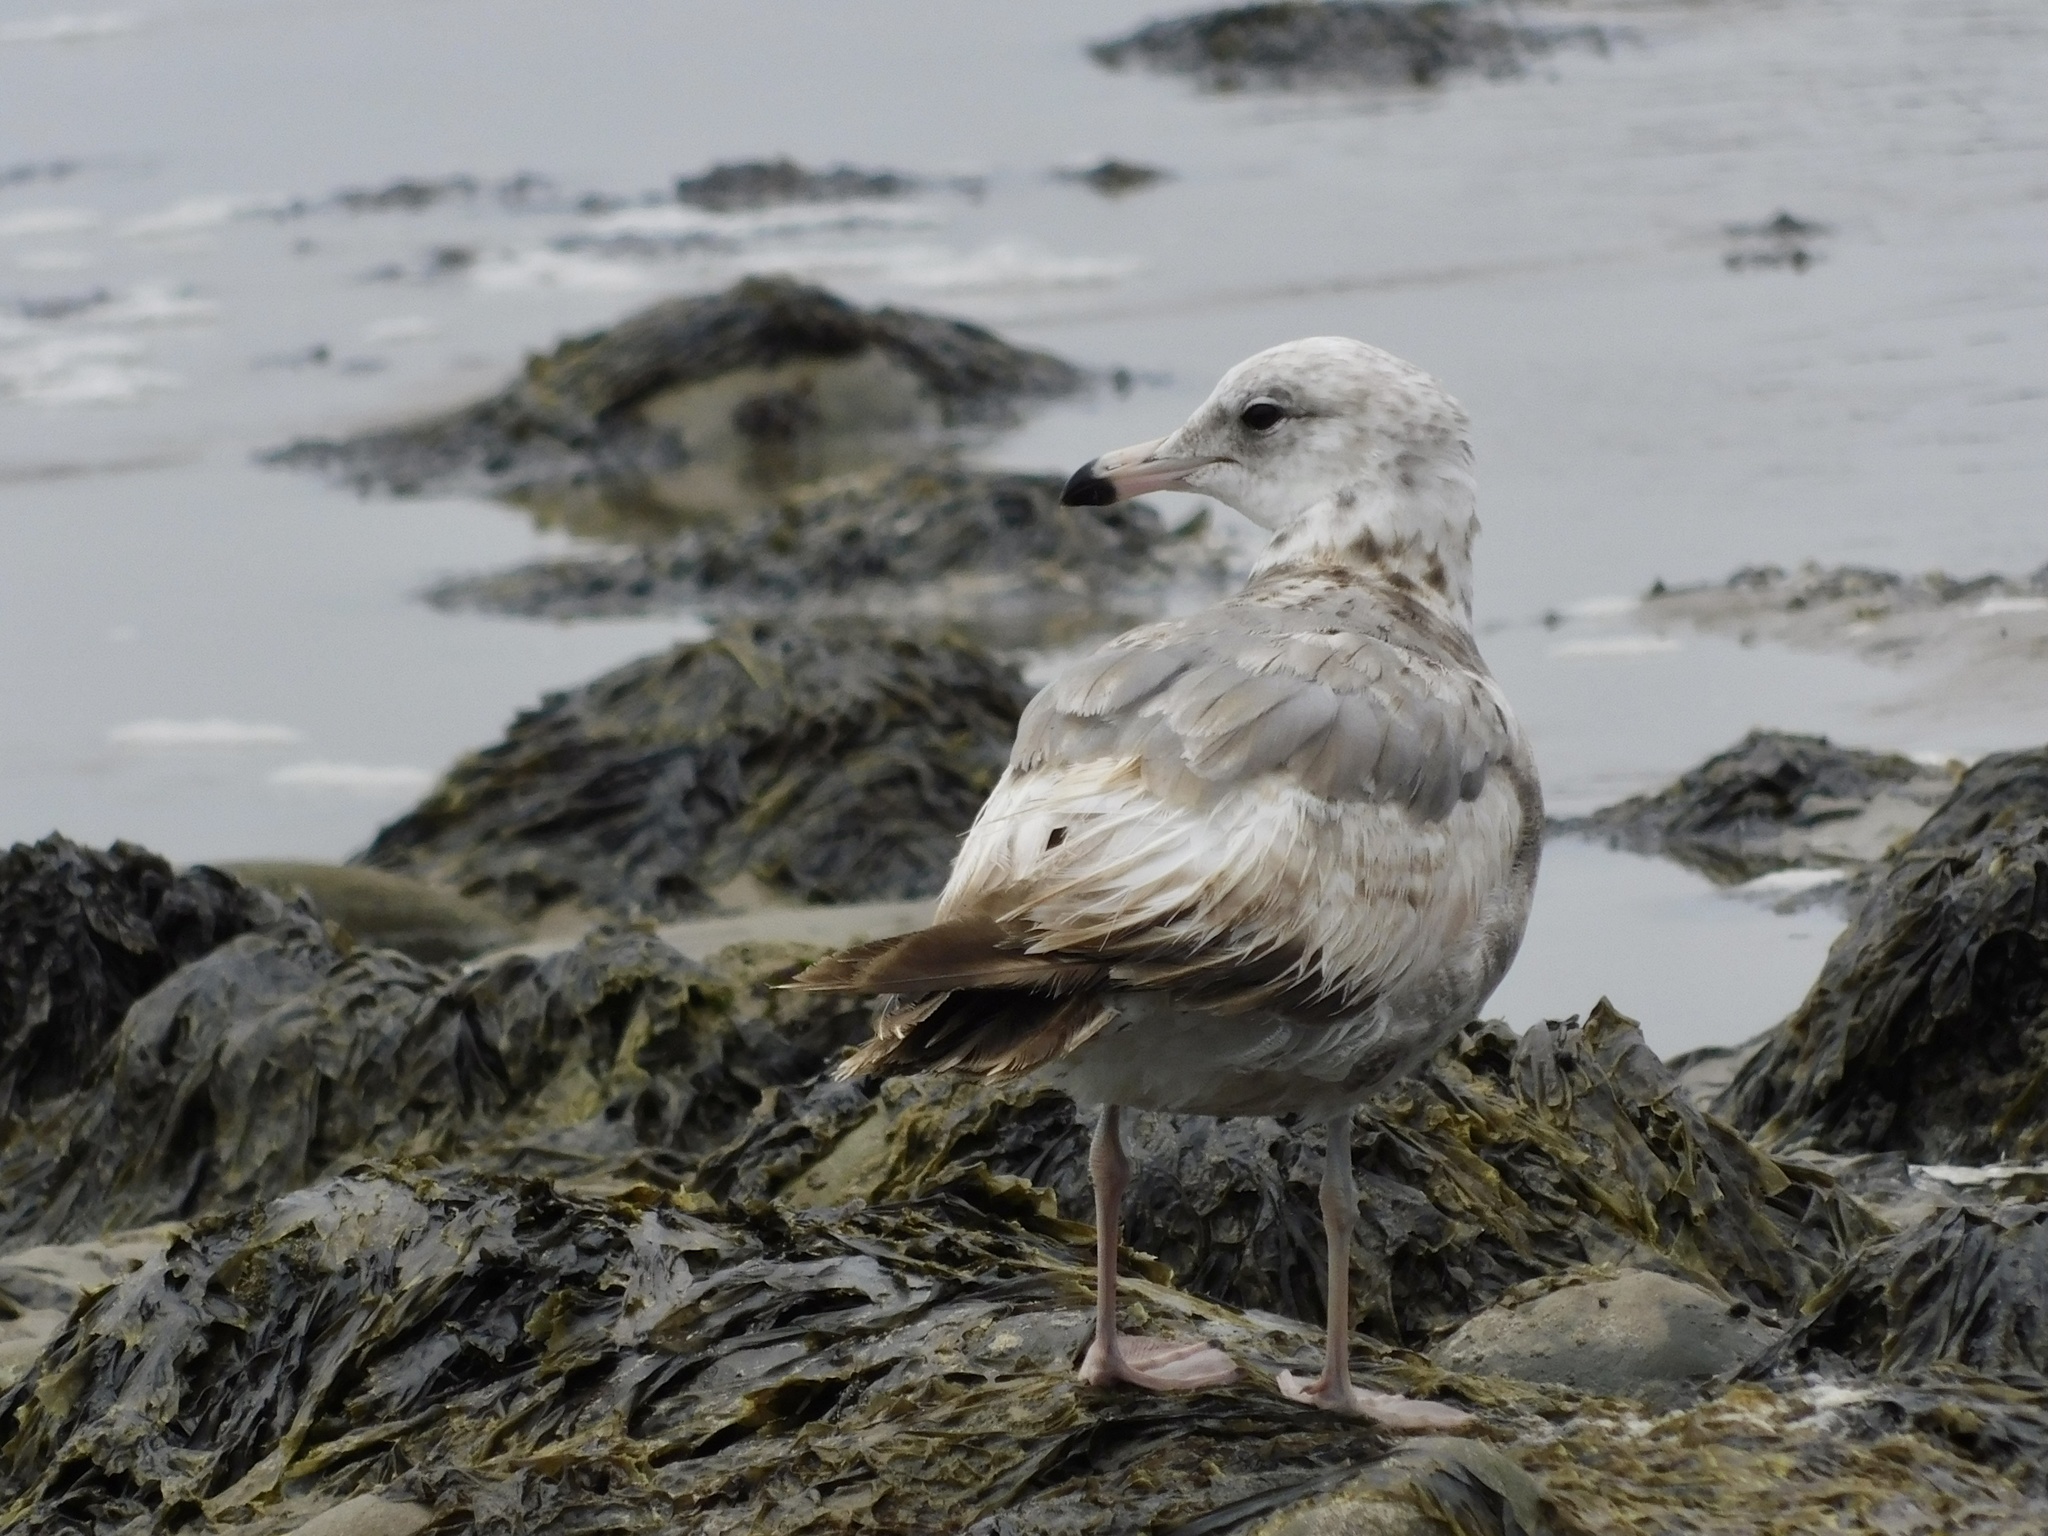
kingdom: Animalia
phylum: Chordata
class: Aves
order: Charadriiformes
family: Laridae
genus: Larus
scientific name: Larus delawarensis
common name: Ring-billed gull
